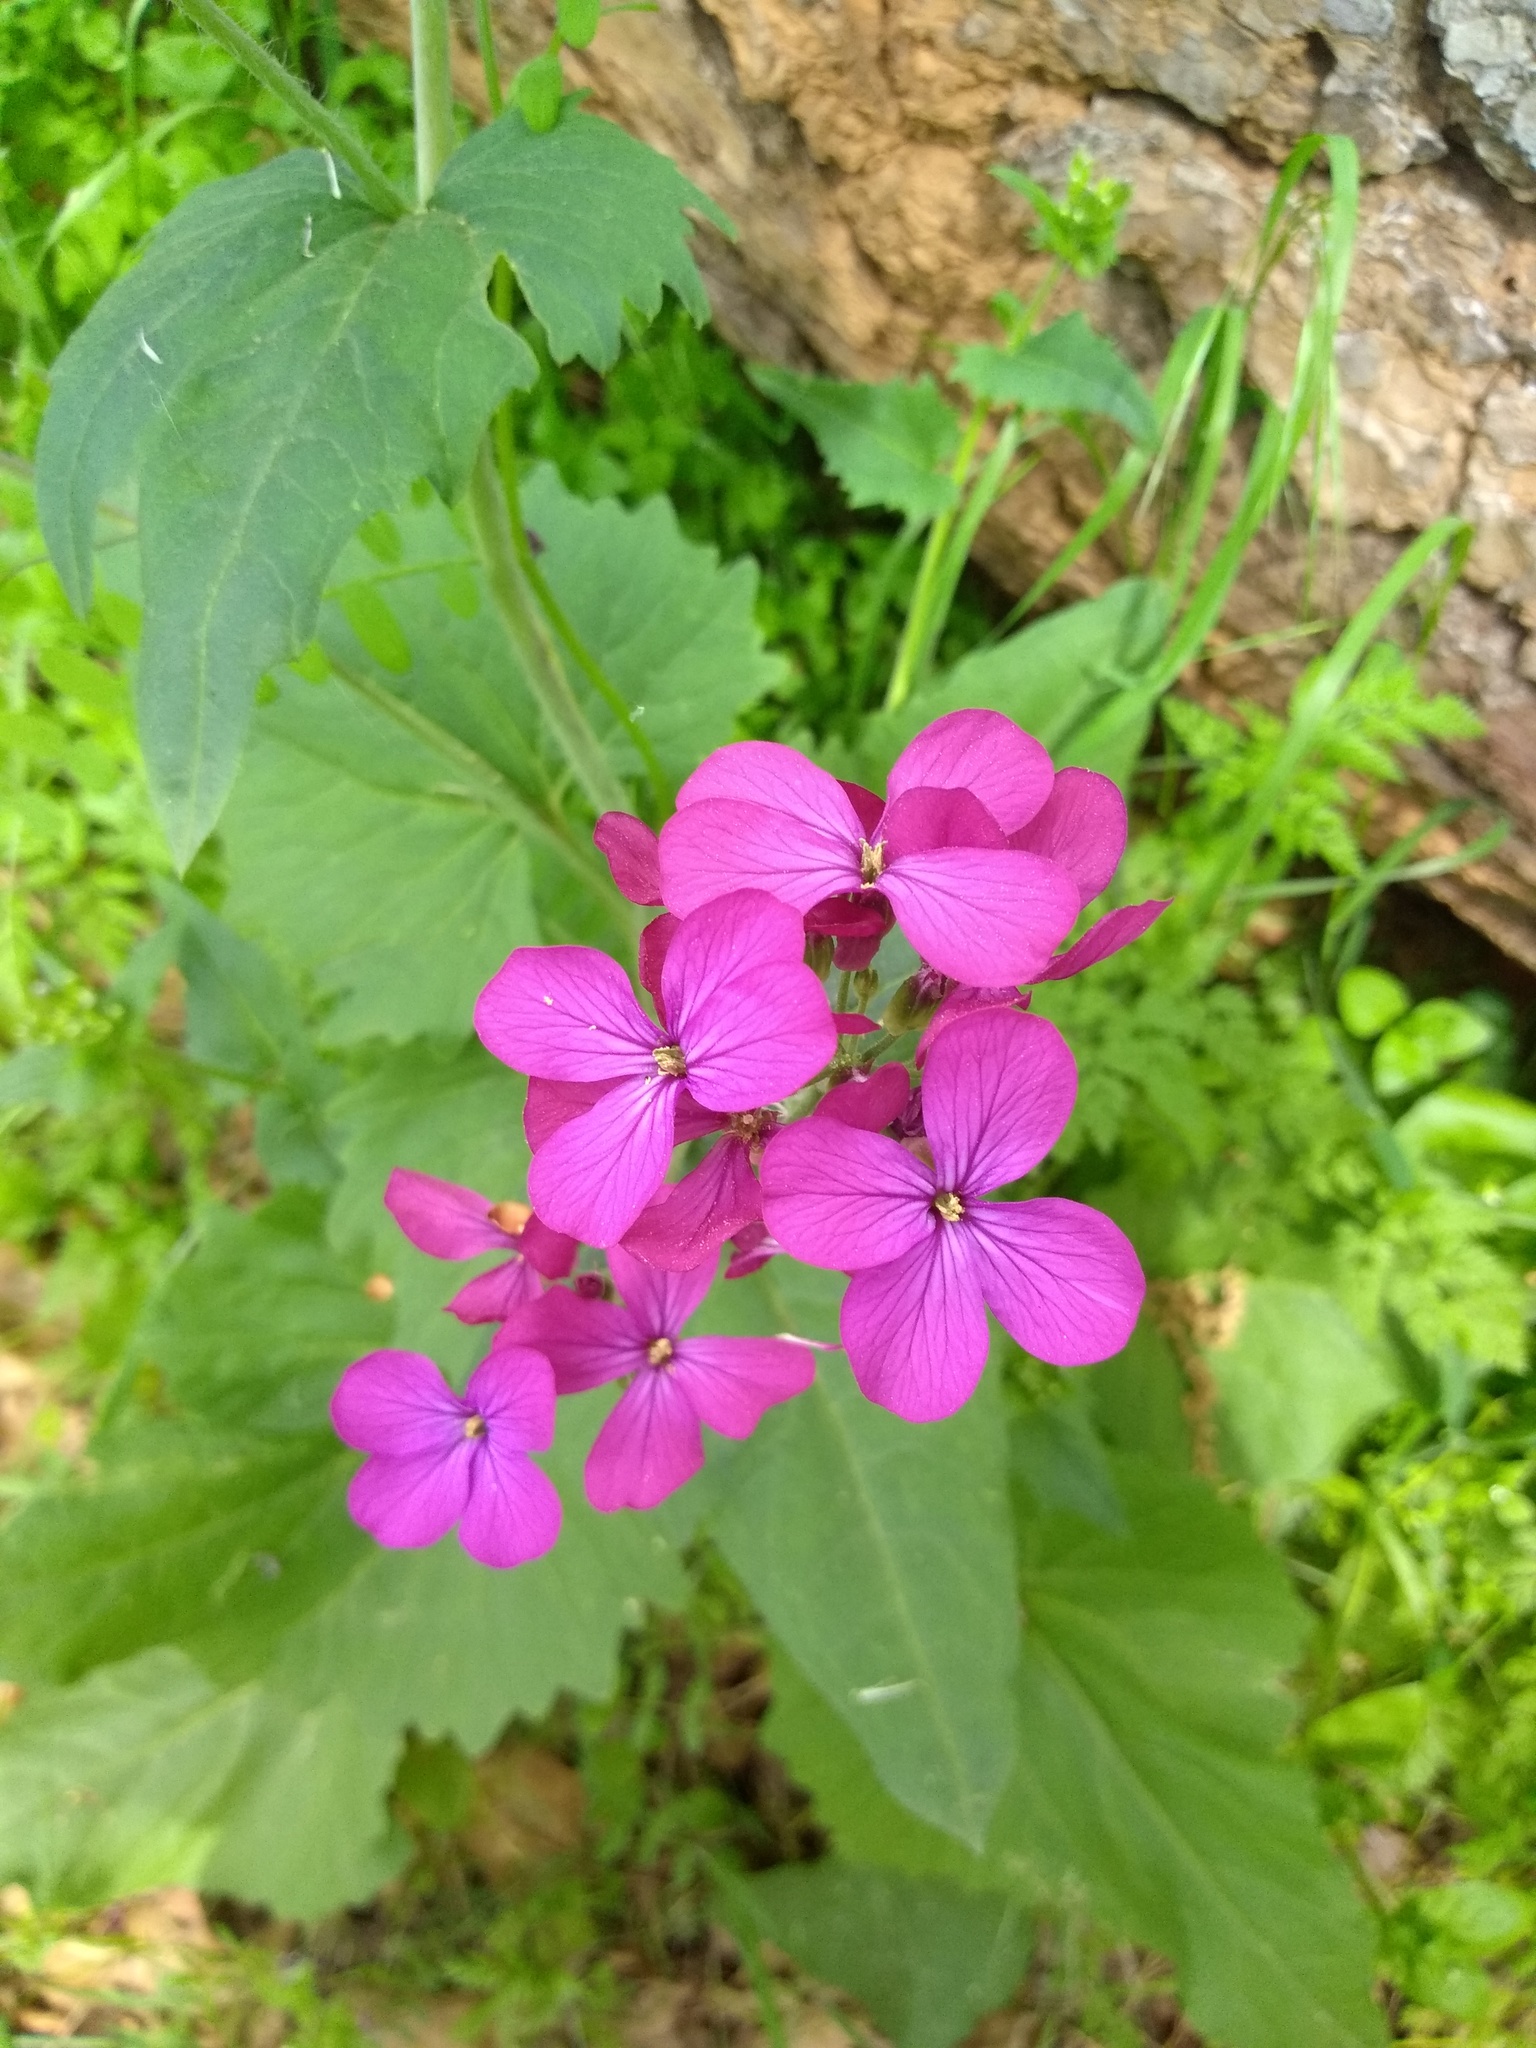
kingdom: Plantae
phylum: Tracheophyta
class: Magnoliopsida
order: Brassicales
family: Brassicaceae
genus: Lunaria
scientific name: Lunaria annua
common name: Honesty
